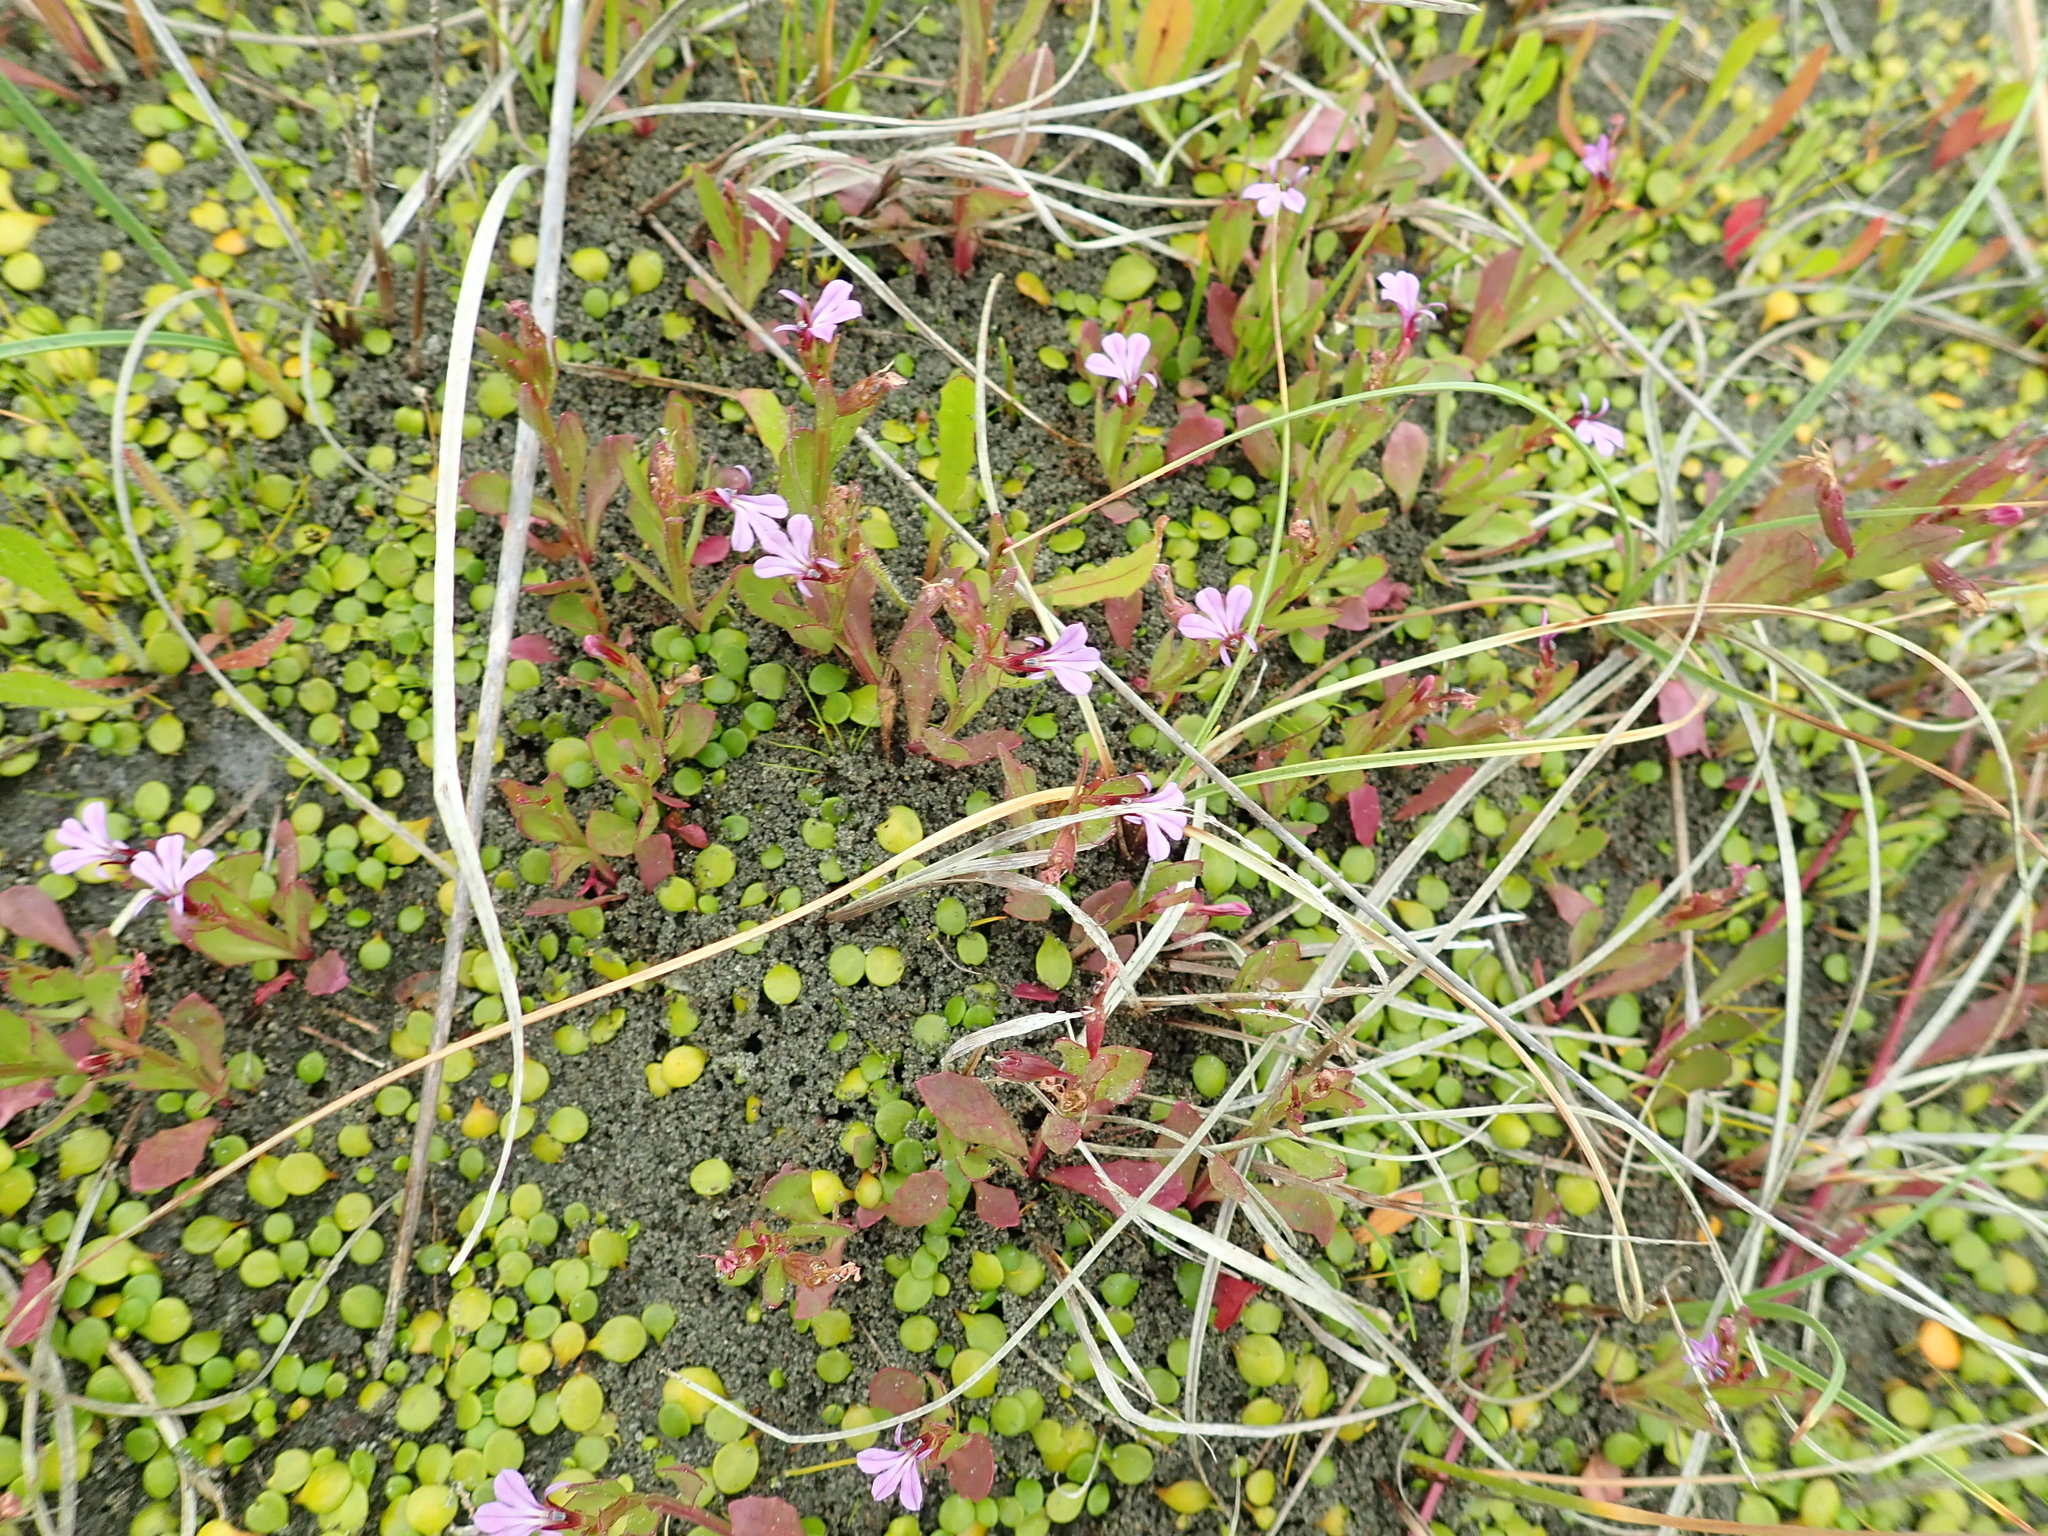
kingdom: Plantae
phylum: Tracheophyta
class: Magnoliopsida
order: Asterales
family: Campanulaceae
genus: Lobelia
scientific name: Lobelia anceps
